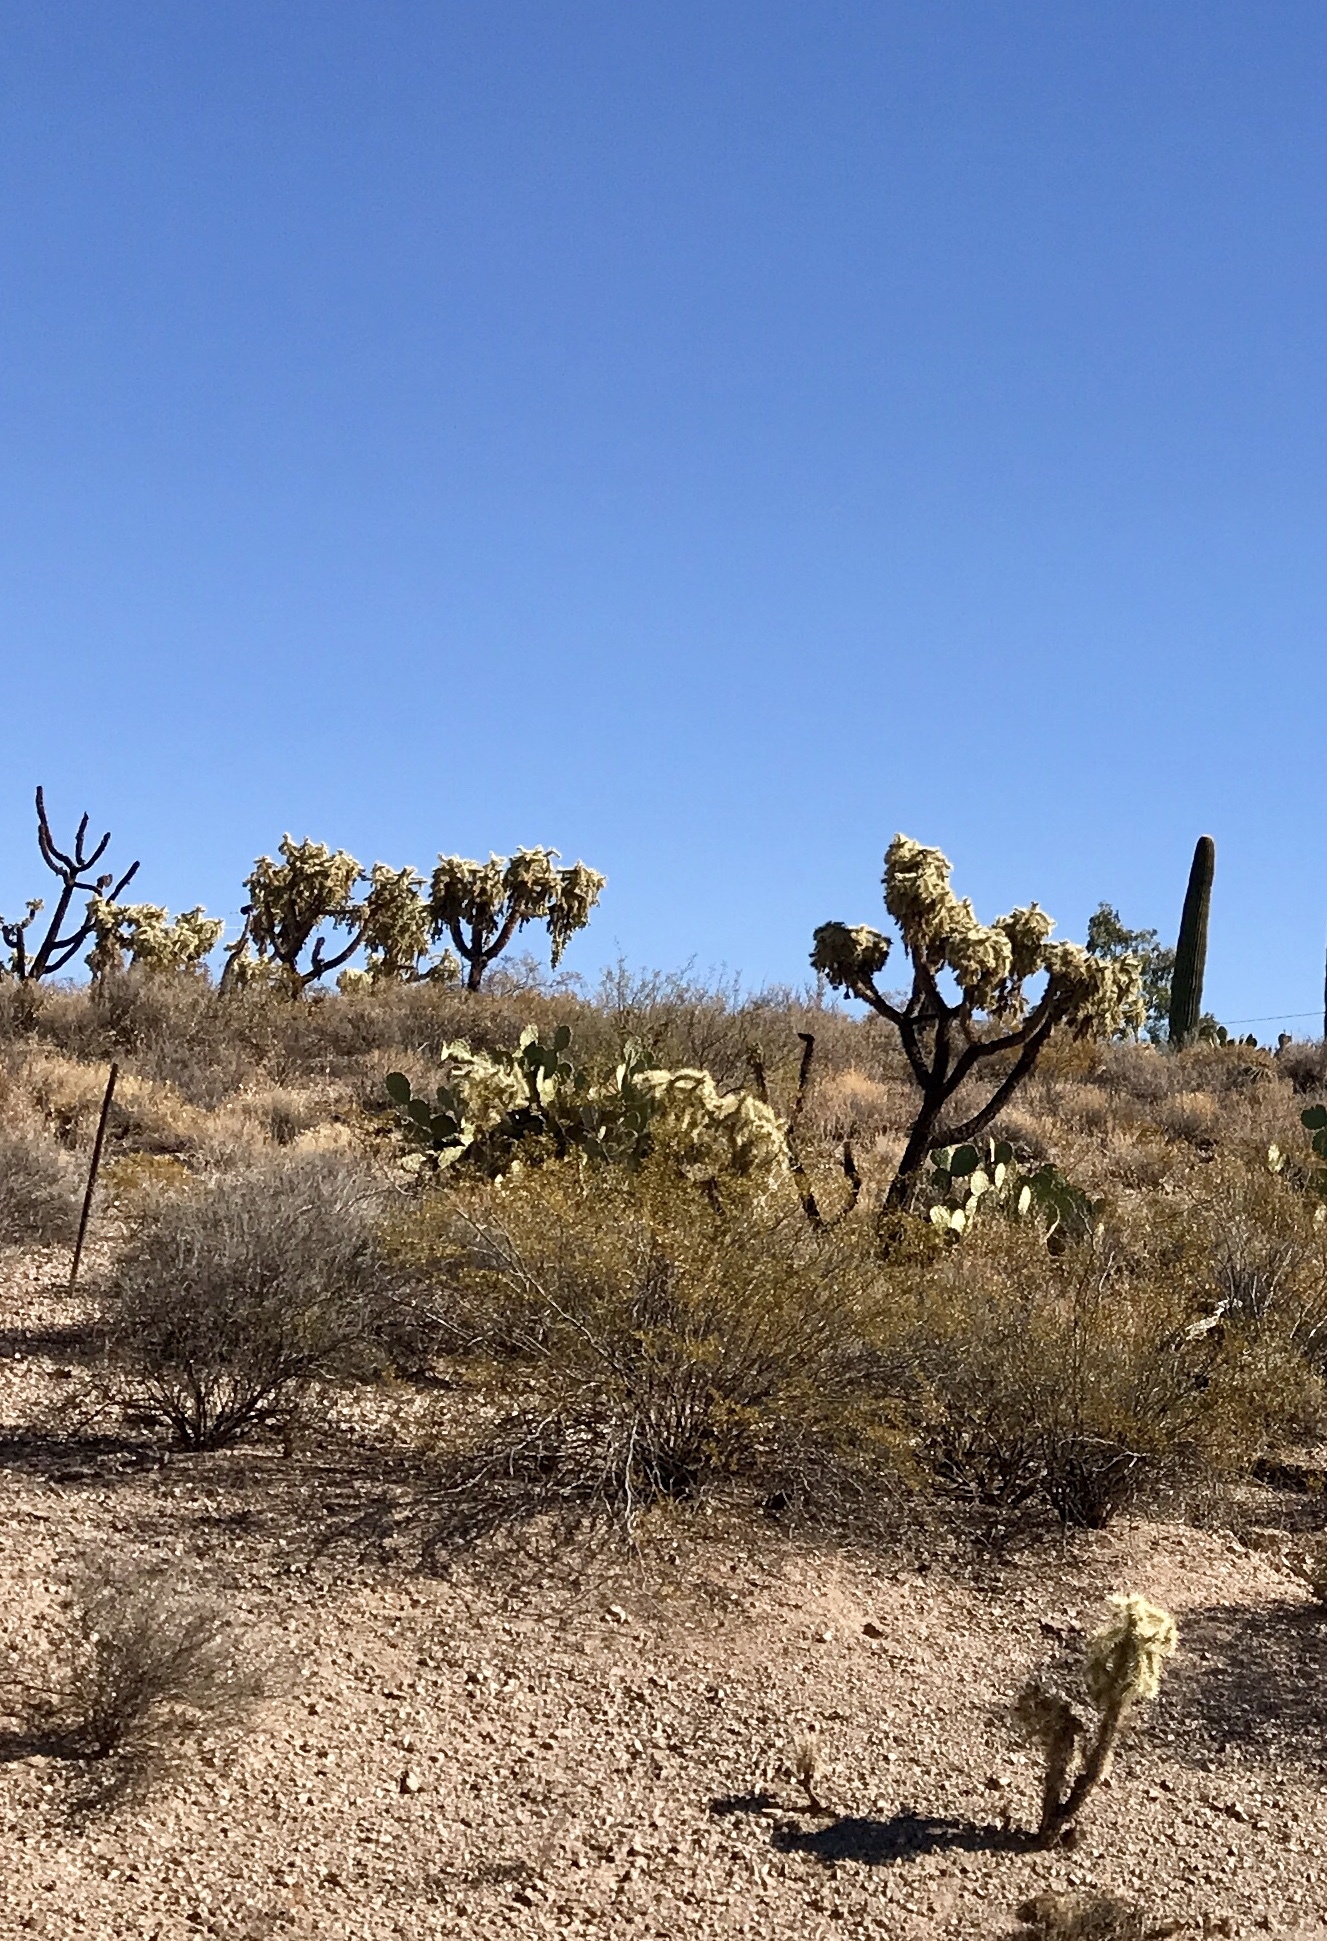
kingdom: Plantae
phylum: Tracheophyta
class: Magnoliopsida
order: Caryophyllales
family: Cactaceae
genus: Cylindropuntia
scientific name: Cylindropuntia fulgida
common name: Jumping cholla
